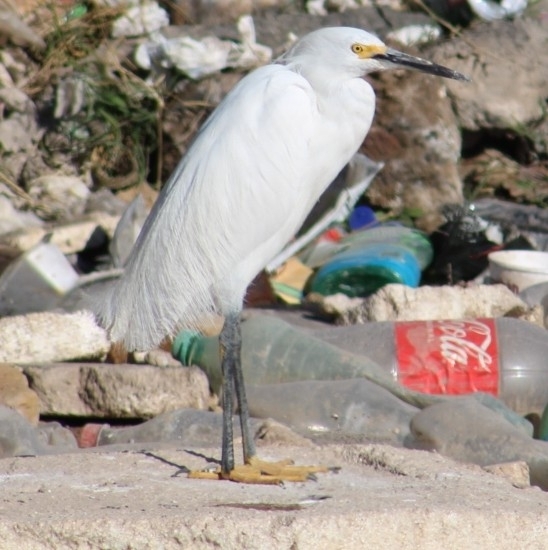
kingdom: Animalia
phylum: Chordata
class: Aves
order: Pelecaniformes
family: Ardeidae
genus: Egretta
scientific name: Egretta thula
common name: Snowy egret
